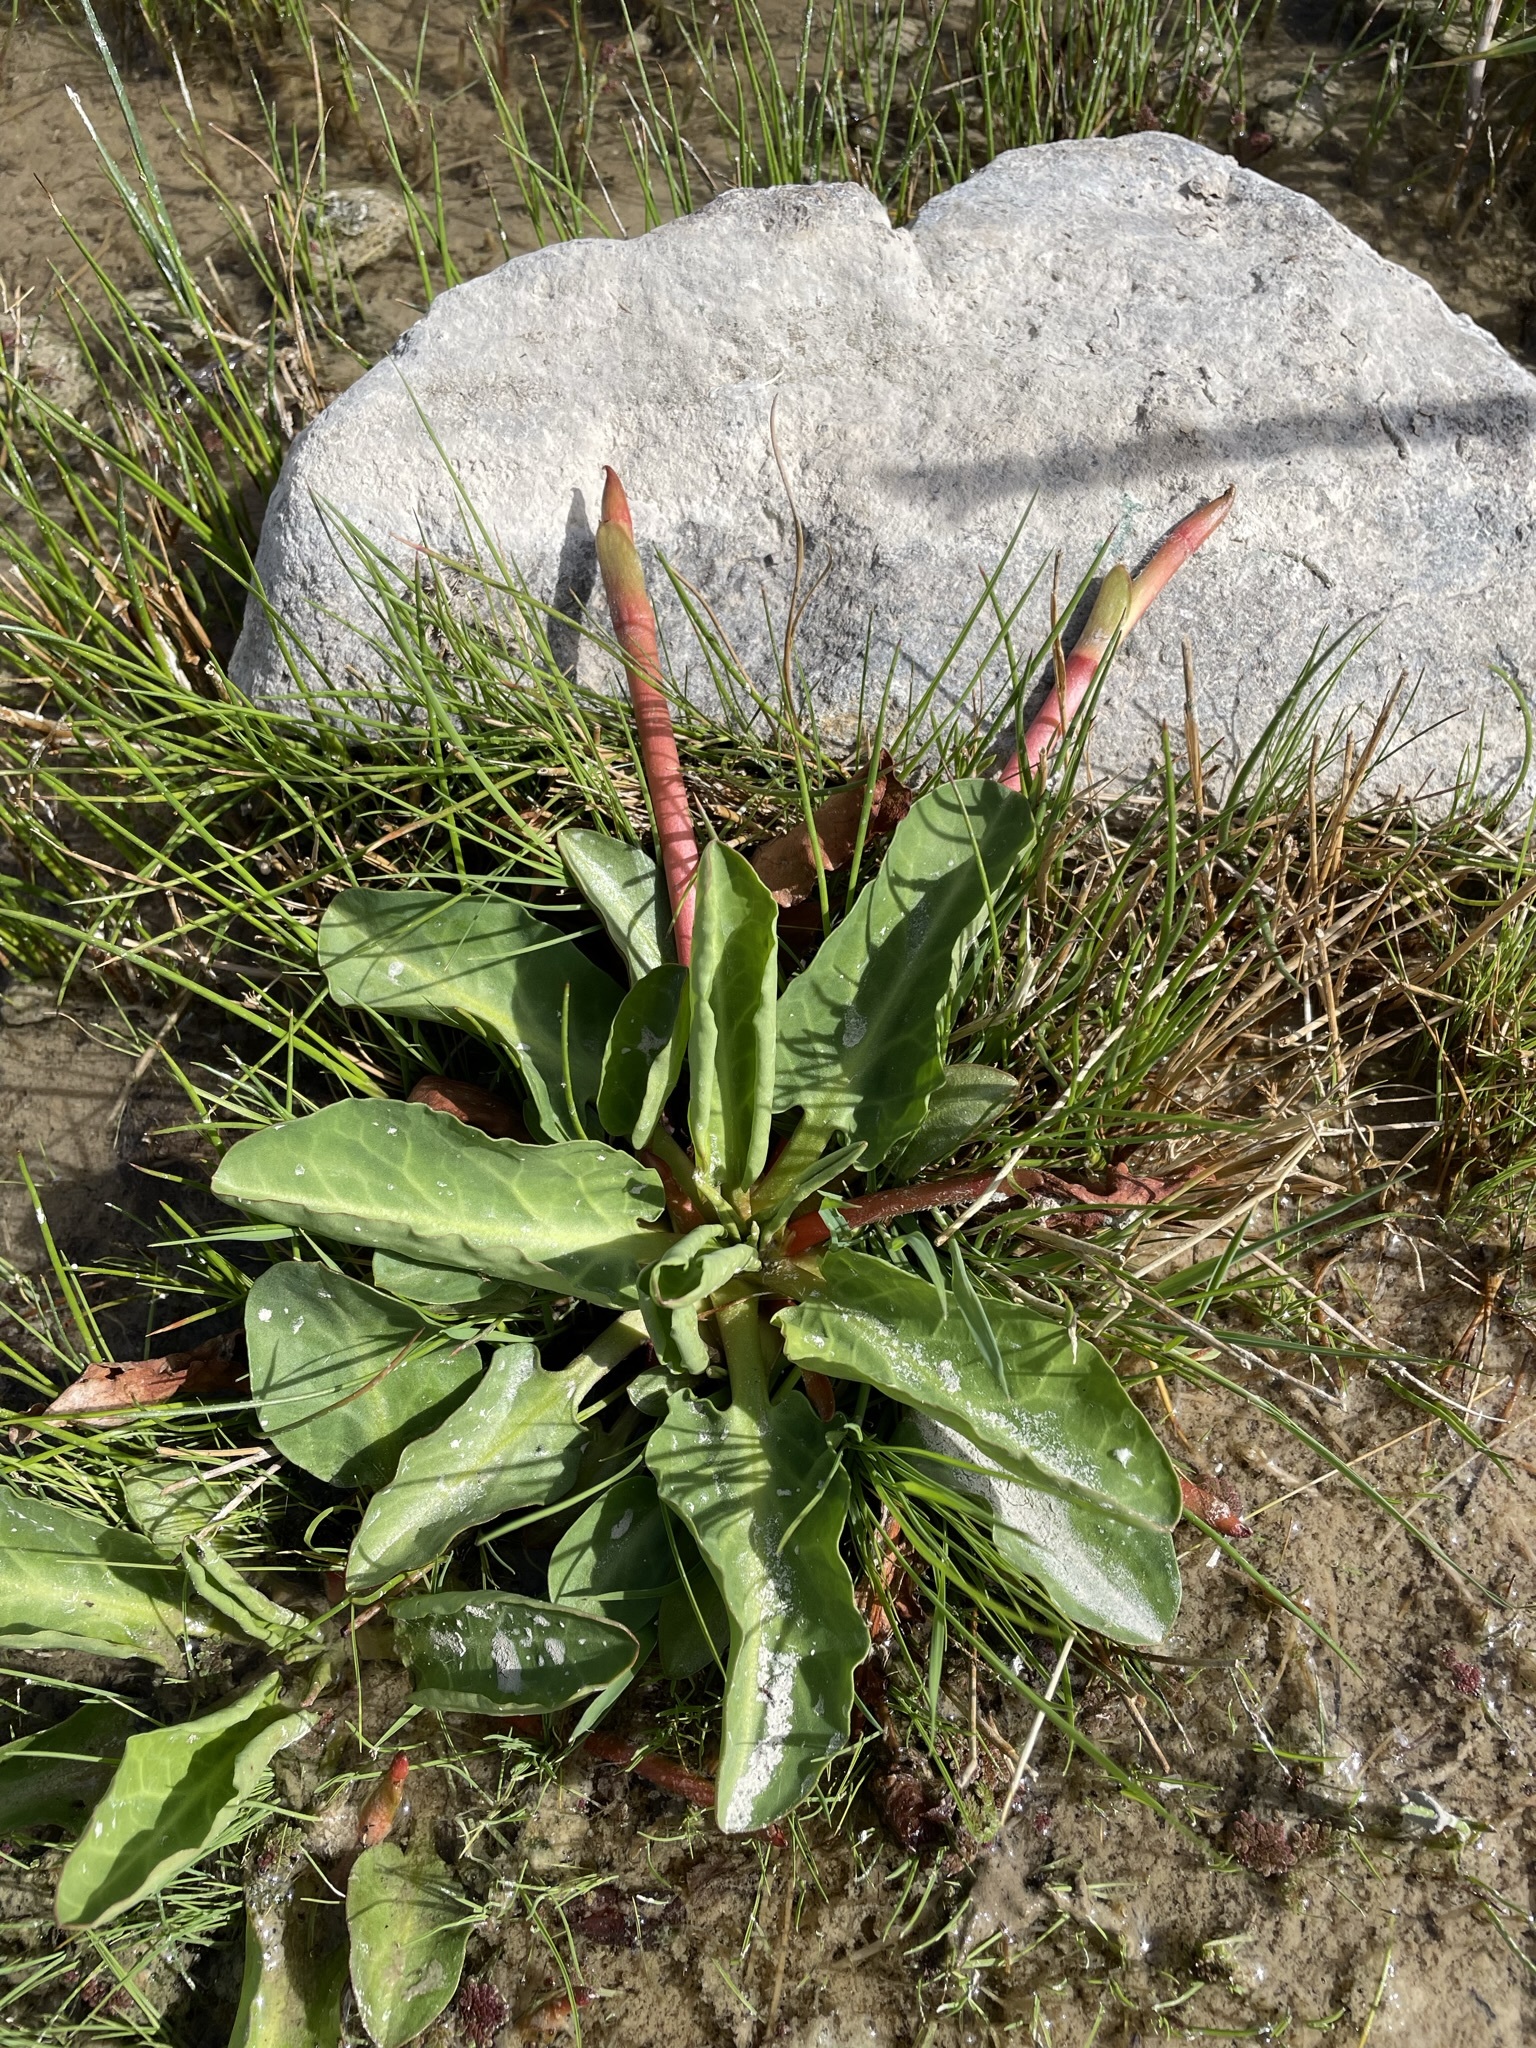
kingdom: Plantae
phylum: Tracheophyta
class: Magnoliopsida
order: Piperales
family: Saururaceae
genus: Anemopsis
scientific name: Anemopsis californica
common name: Apache-beads
